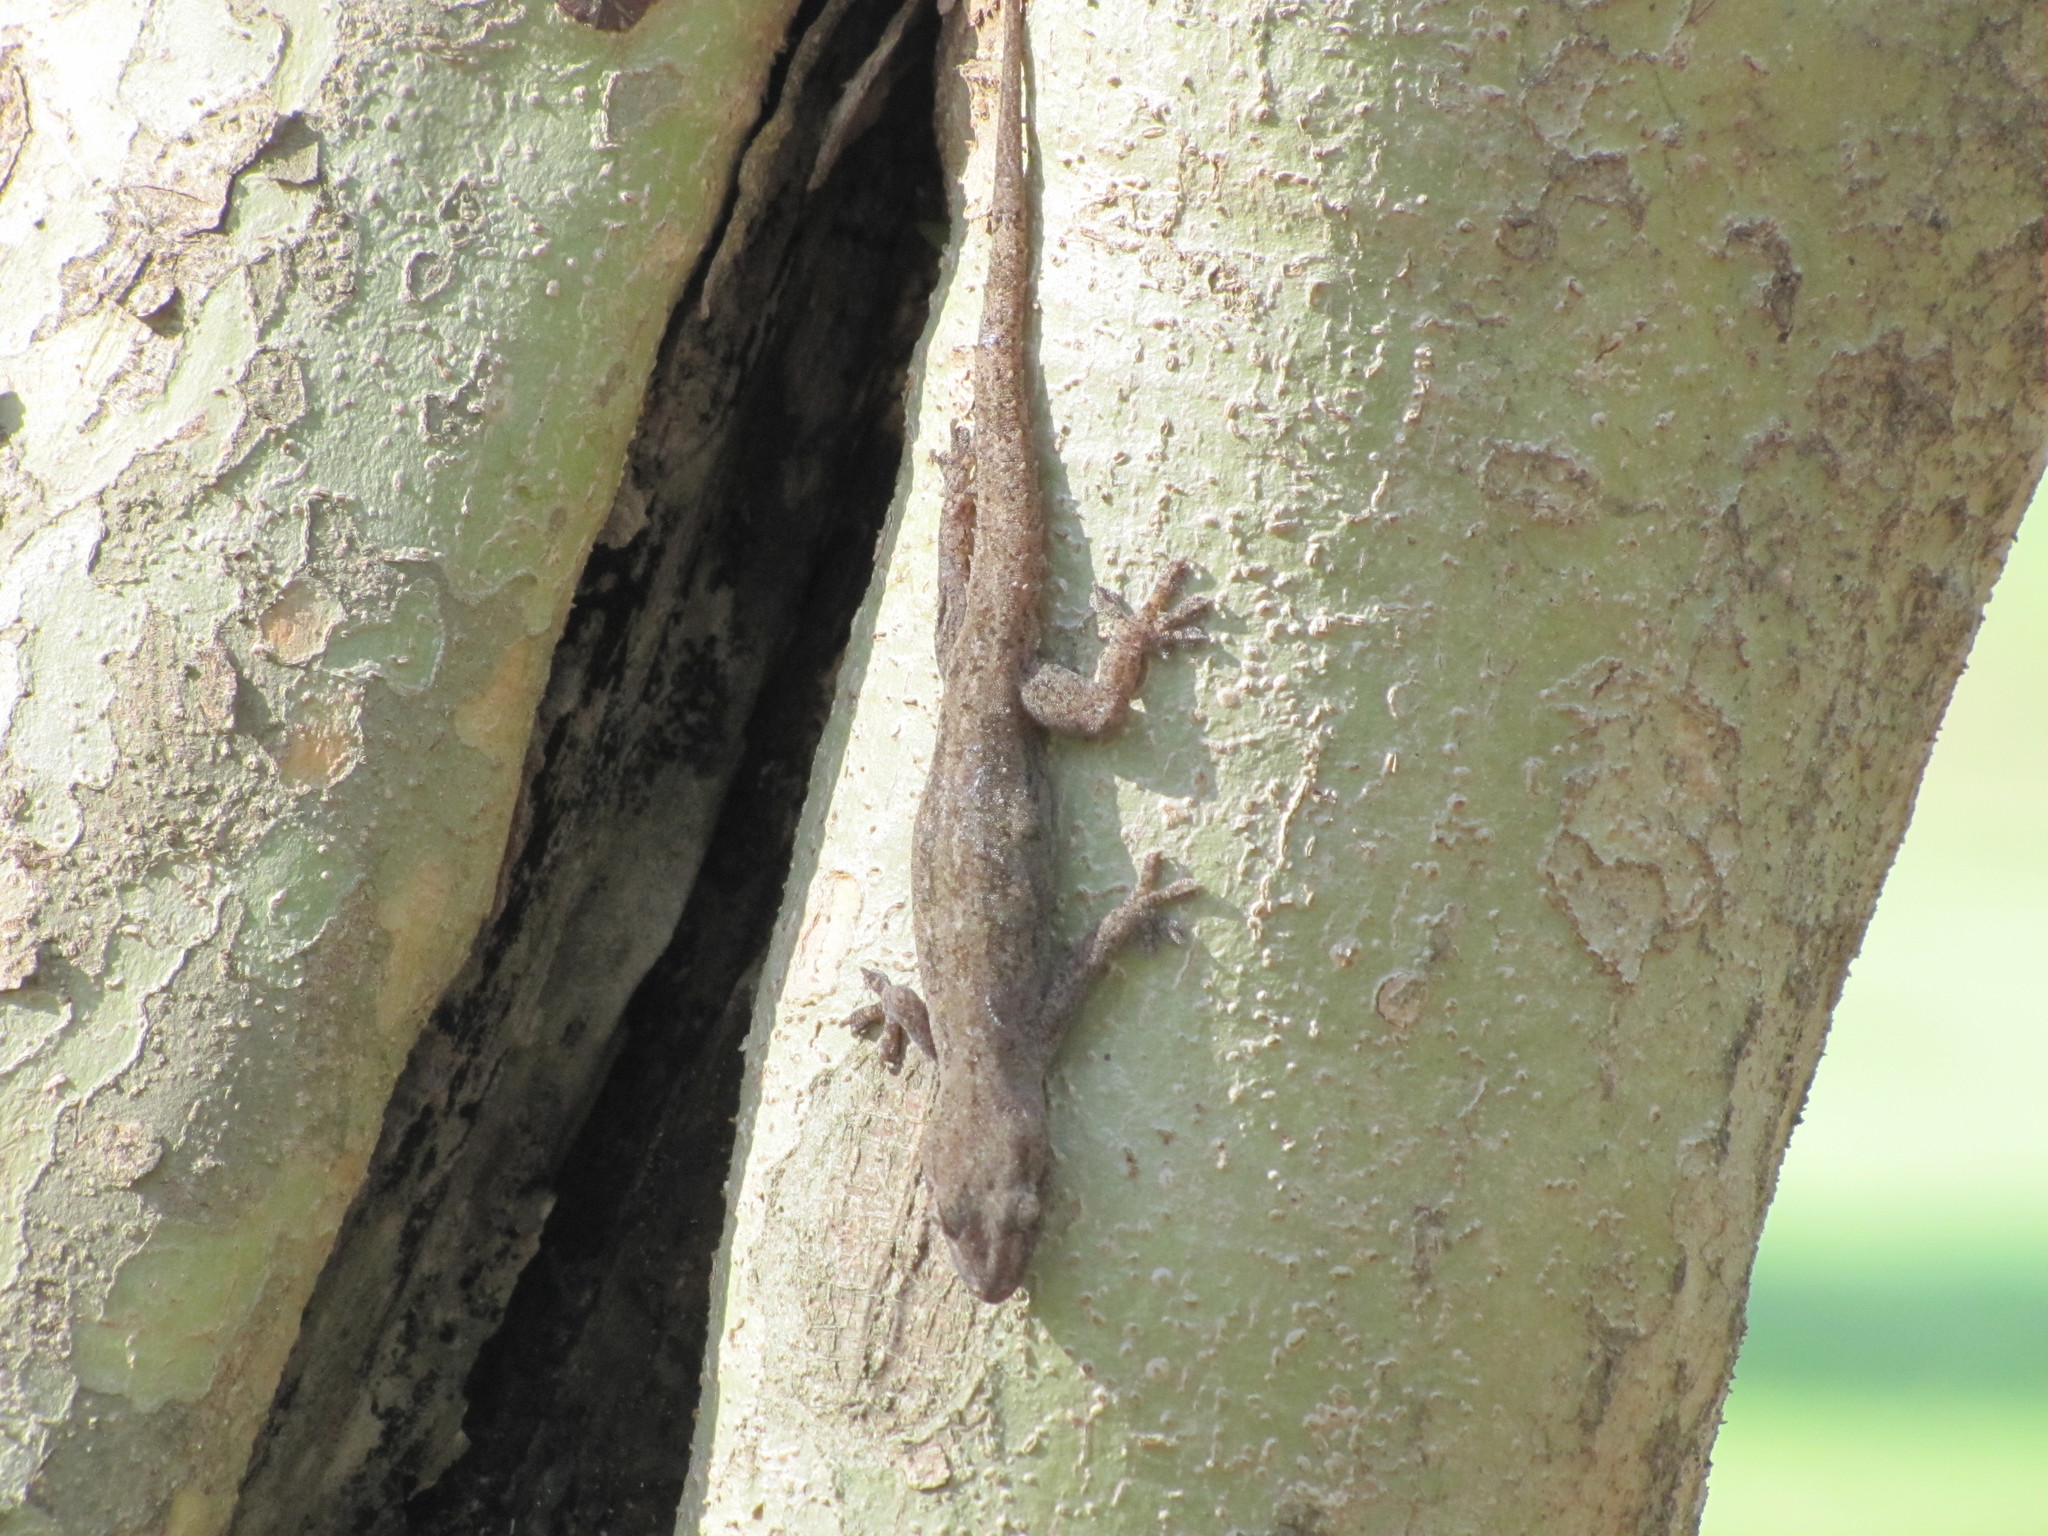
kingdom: Animalia
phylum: Chordata
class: Squamata
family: Gekkonidae
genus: Hemidactylus
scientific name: Hemidactylus frenatus
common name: Common house gecko
